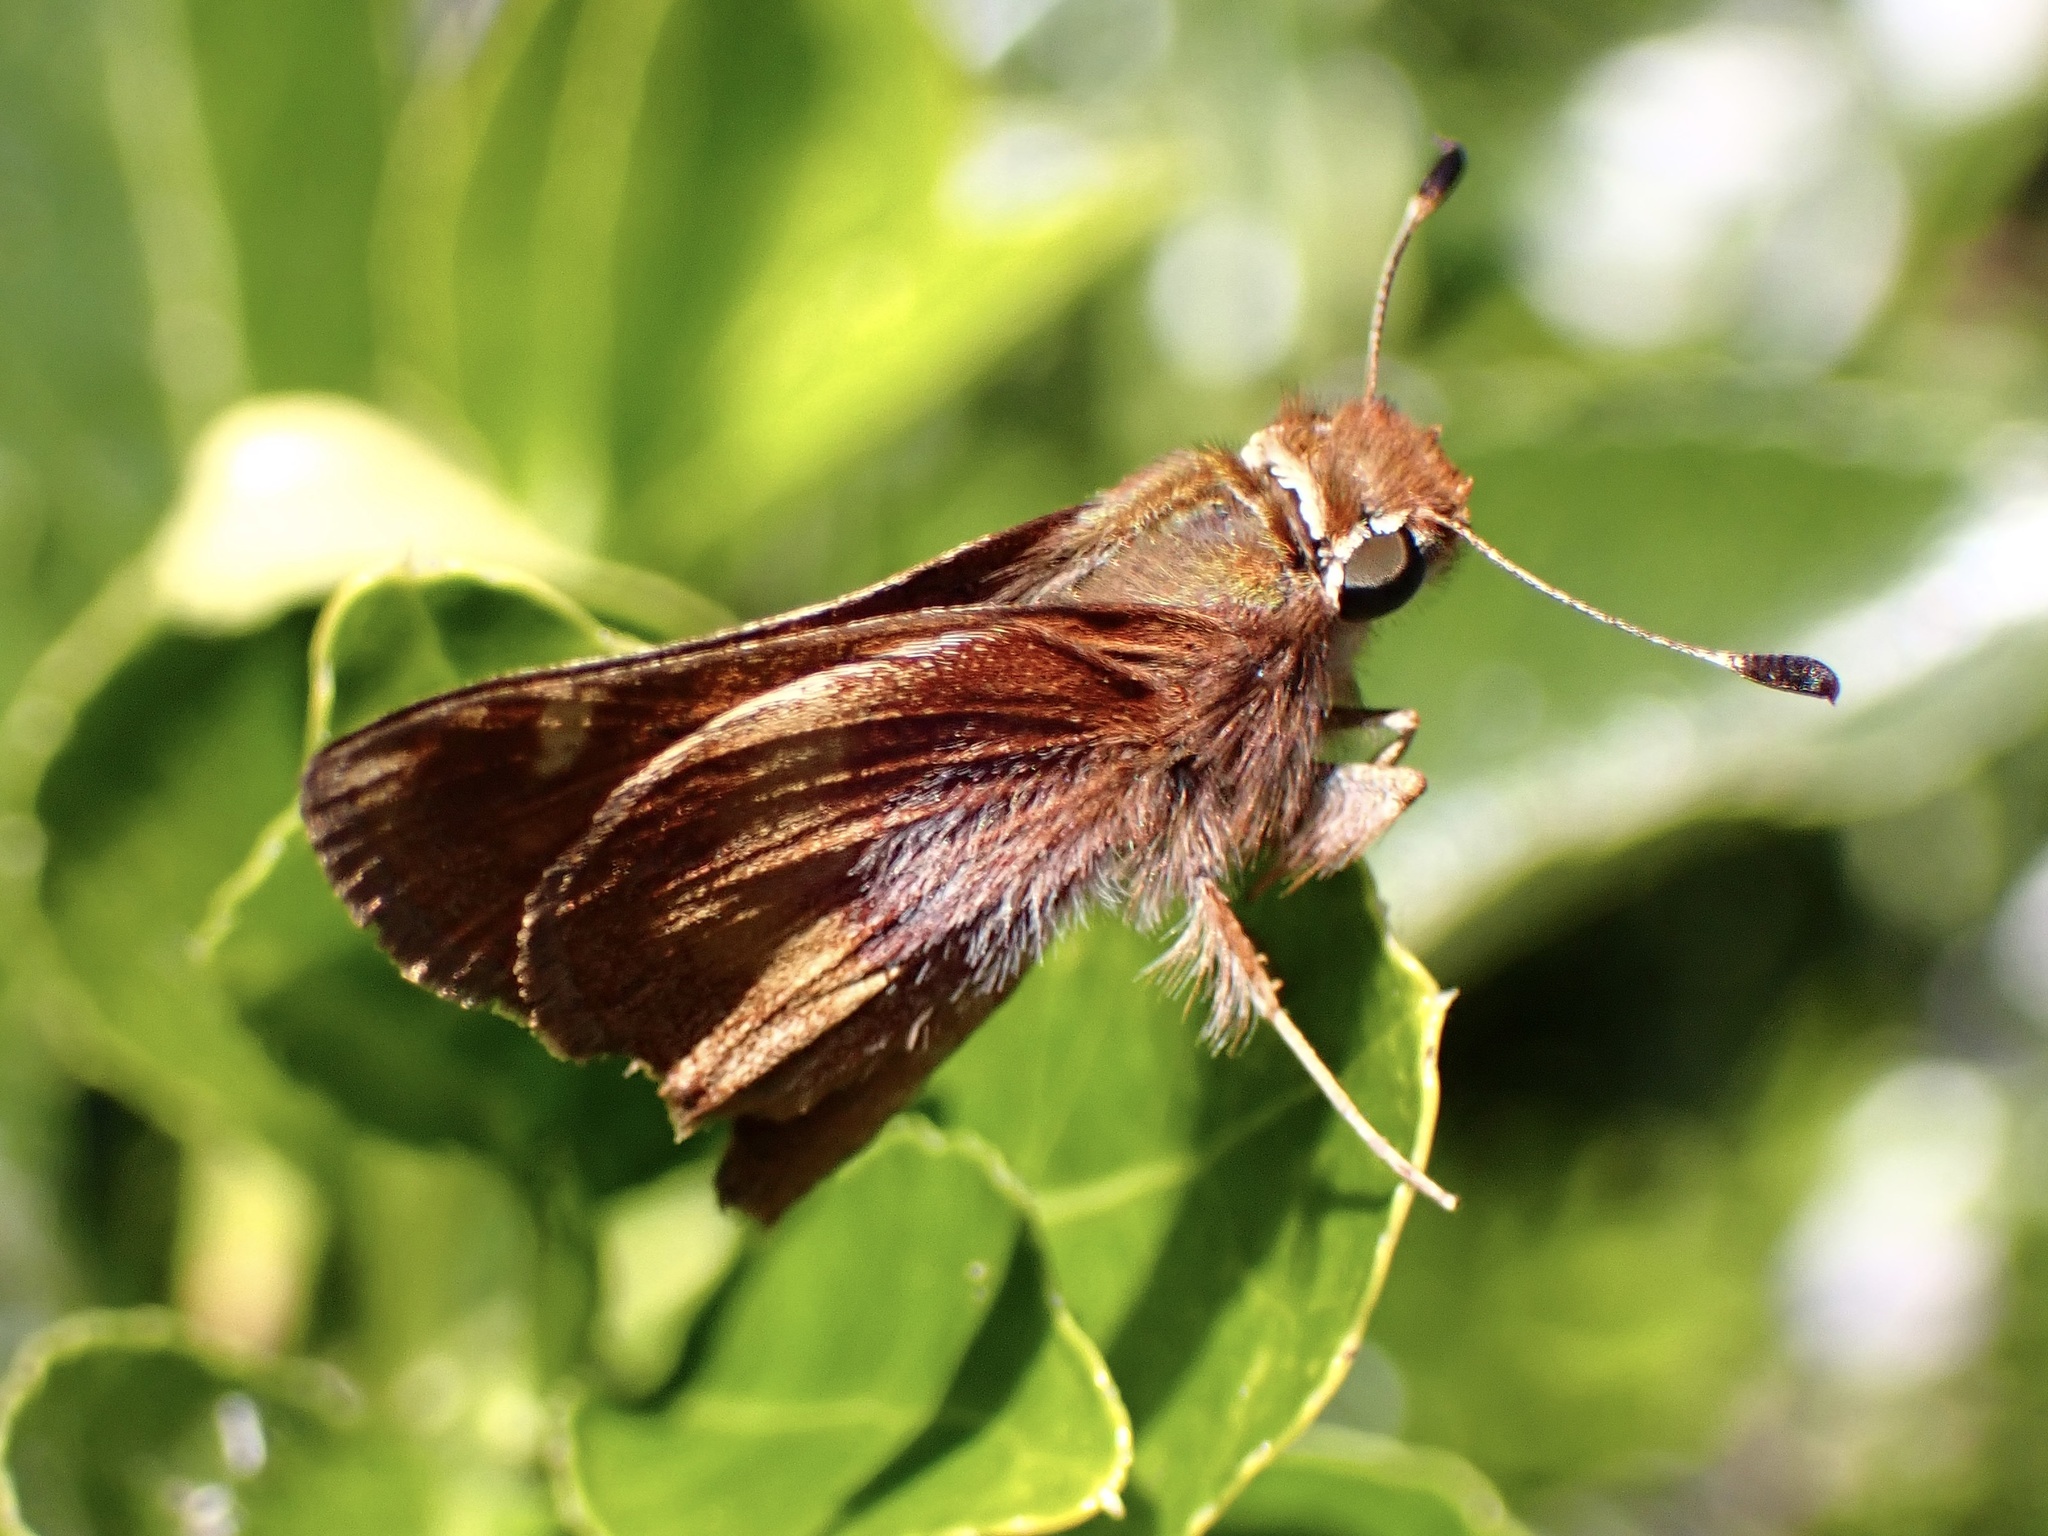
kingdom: Animalia
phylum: Arthropoda
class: Insecta
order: Lepidoptera
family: Hesperiidae
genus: Lon
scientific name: Lon melane
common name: Umber skipper
